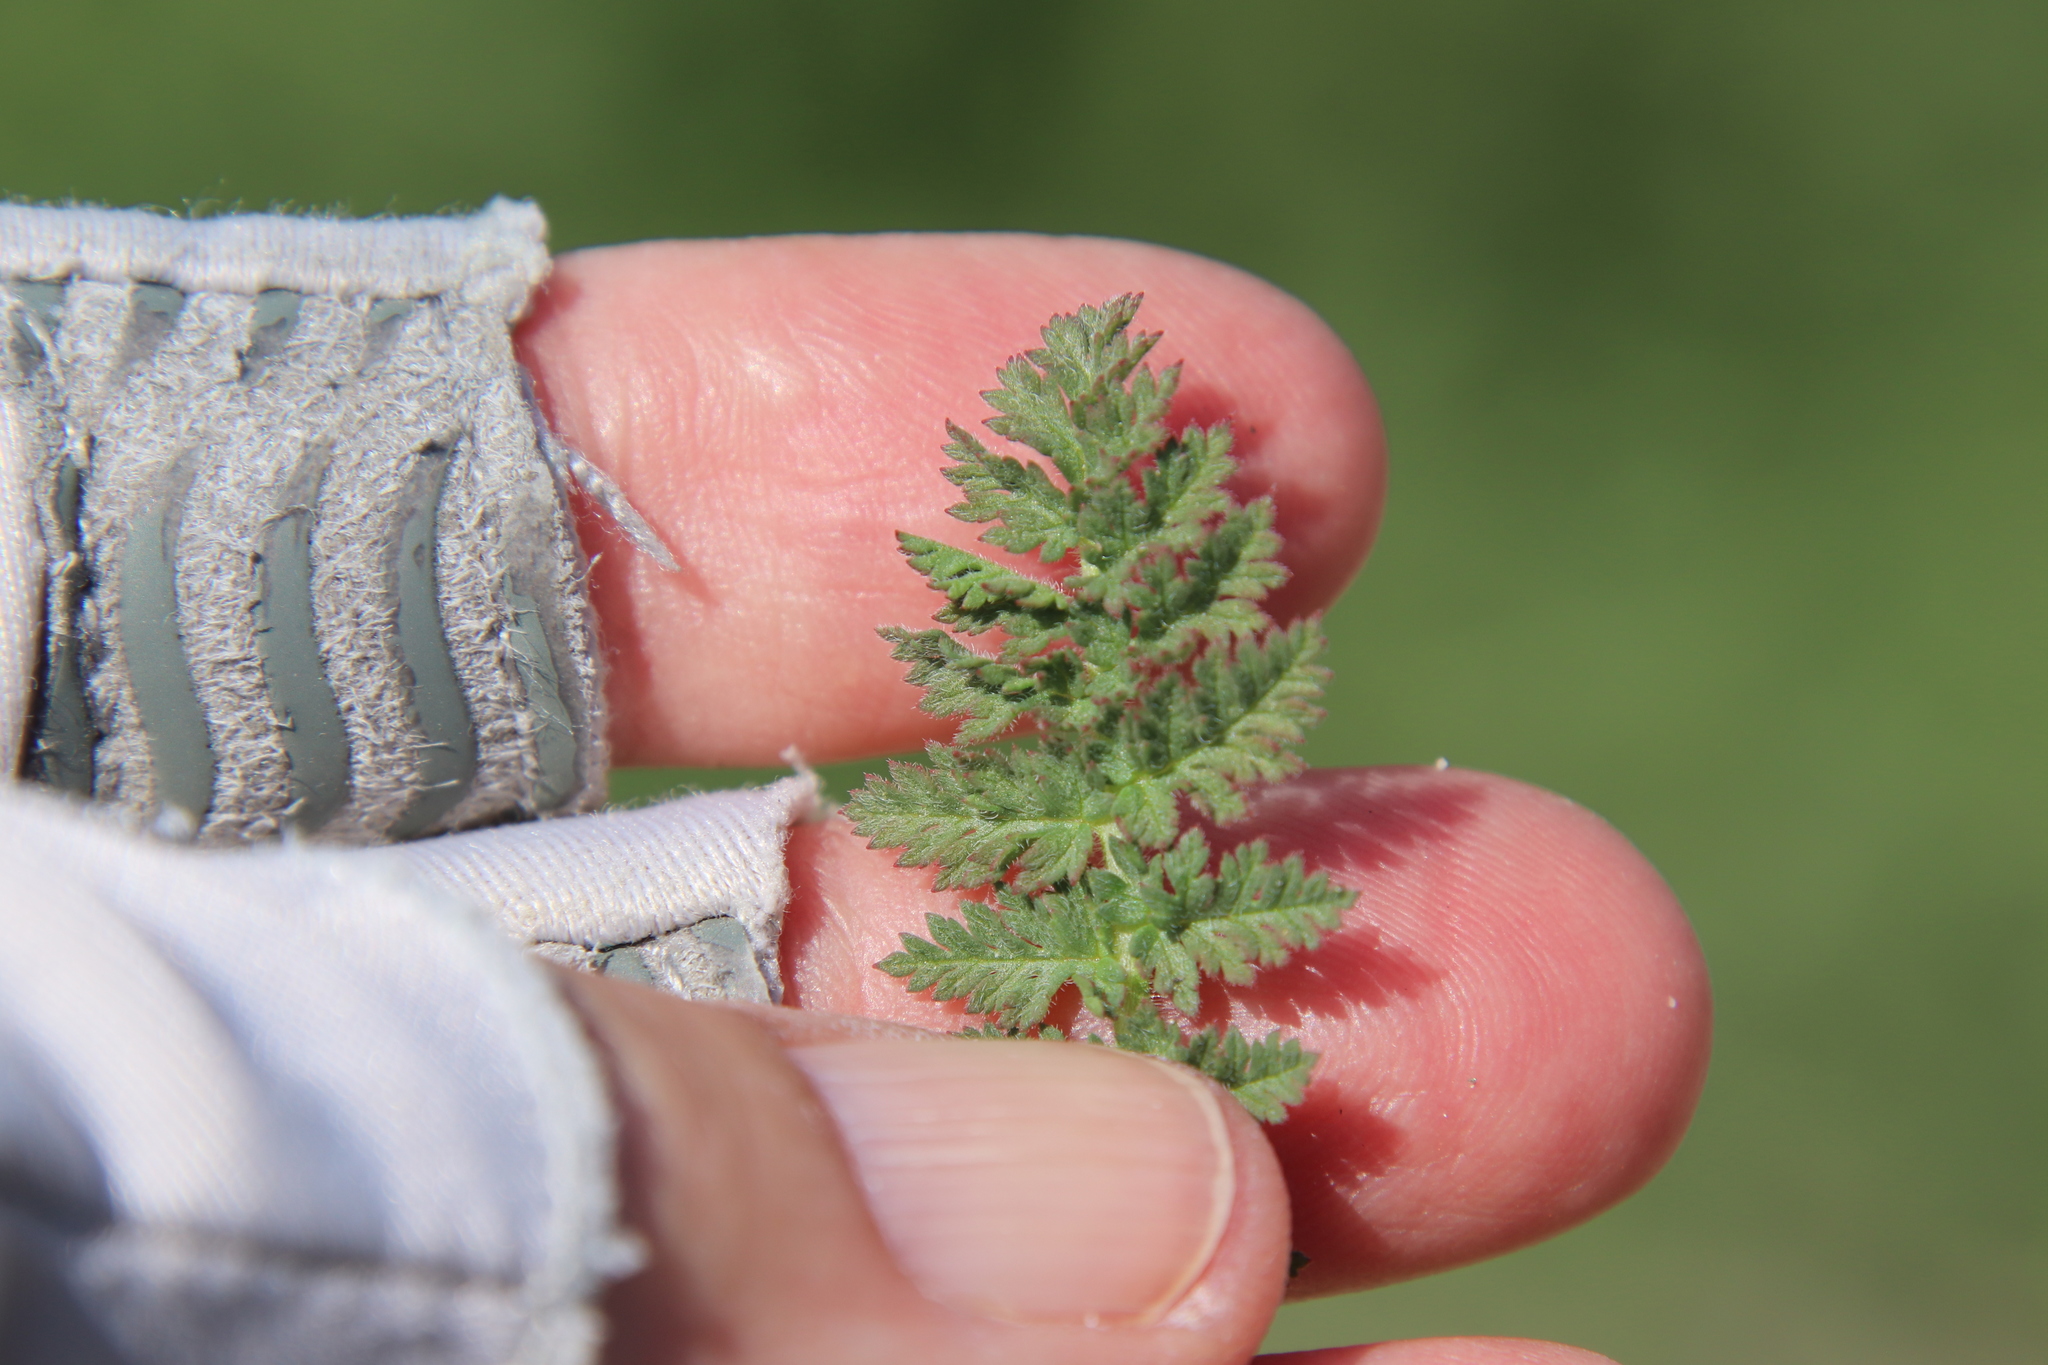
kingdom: Plantae
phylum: Tracheophyta
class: Magnoliopsida
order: Geraniales
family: Geraniaceae
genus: Erodium
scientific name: Erodium cicutarium
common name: Common stork's-bill
